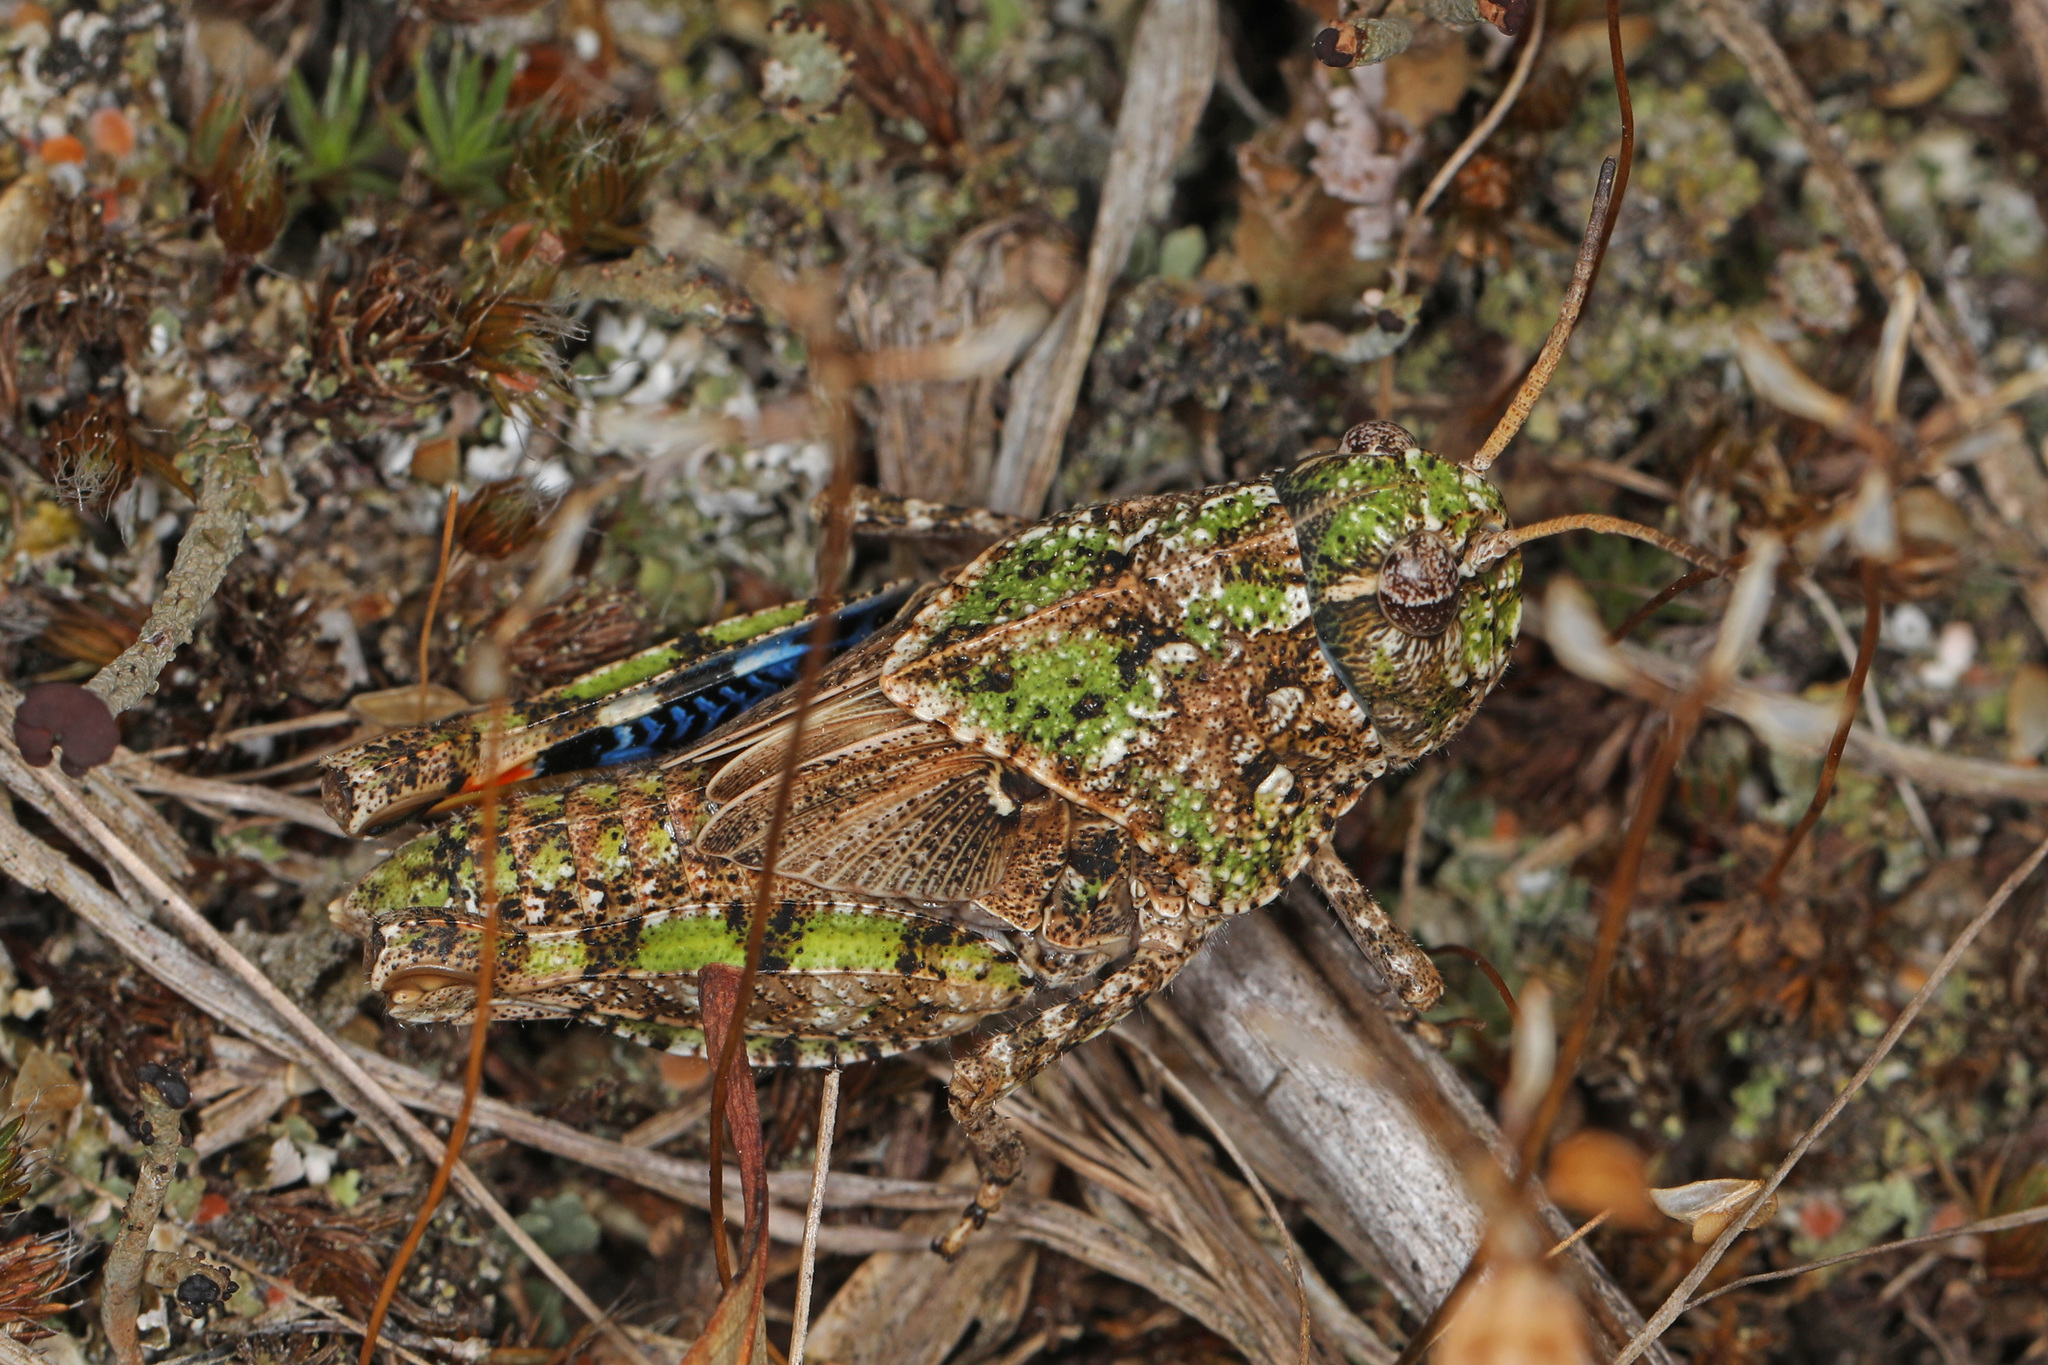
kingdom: Animalia
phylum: Arthropoda
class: Insecta
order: Orthoptera
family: Acrididae
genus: Pardalophora
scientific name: Pardalophora phoenicoptera
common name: Orange-winged grasshopper
